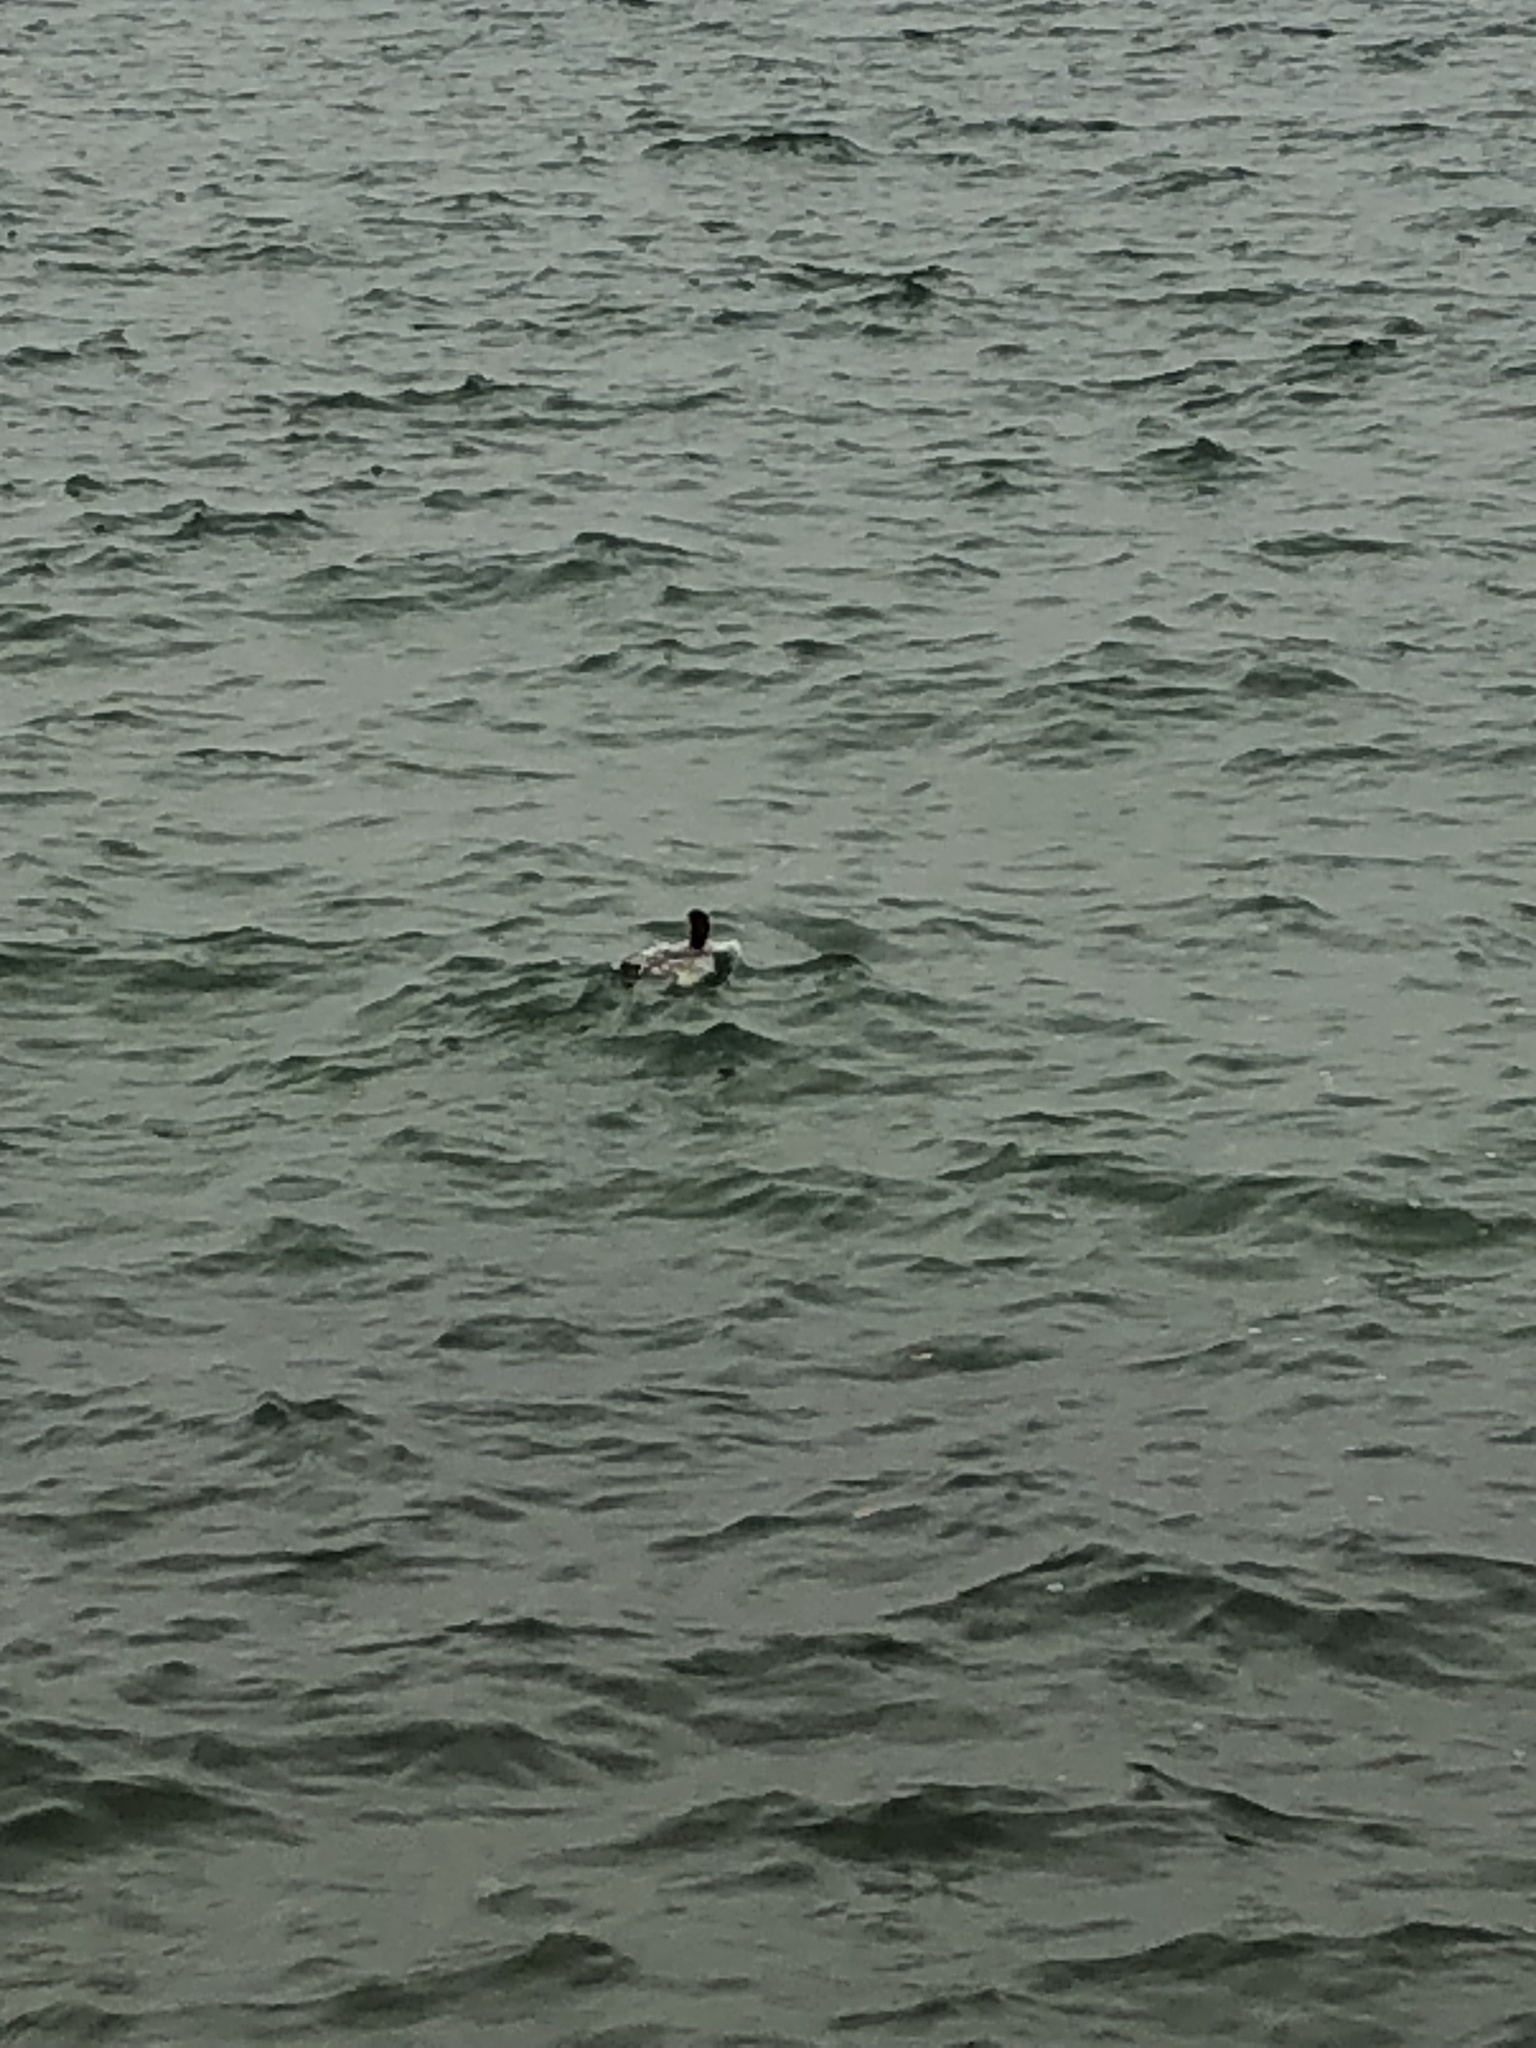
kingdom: Animalia
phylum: Chordata
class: Aves
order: Anseriformes
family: Anatidae
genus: Mergus
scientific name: Mergus merganser
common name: Common merganser
